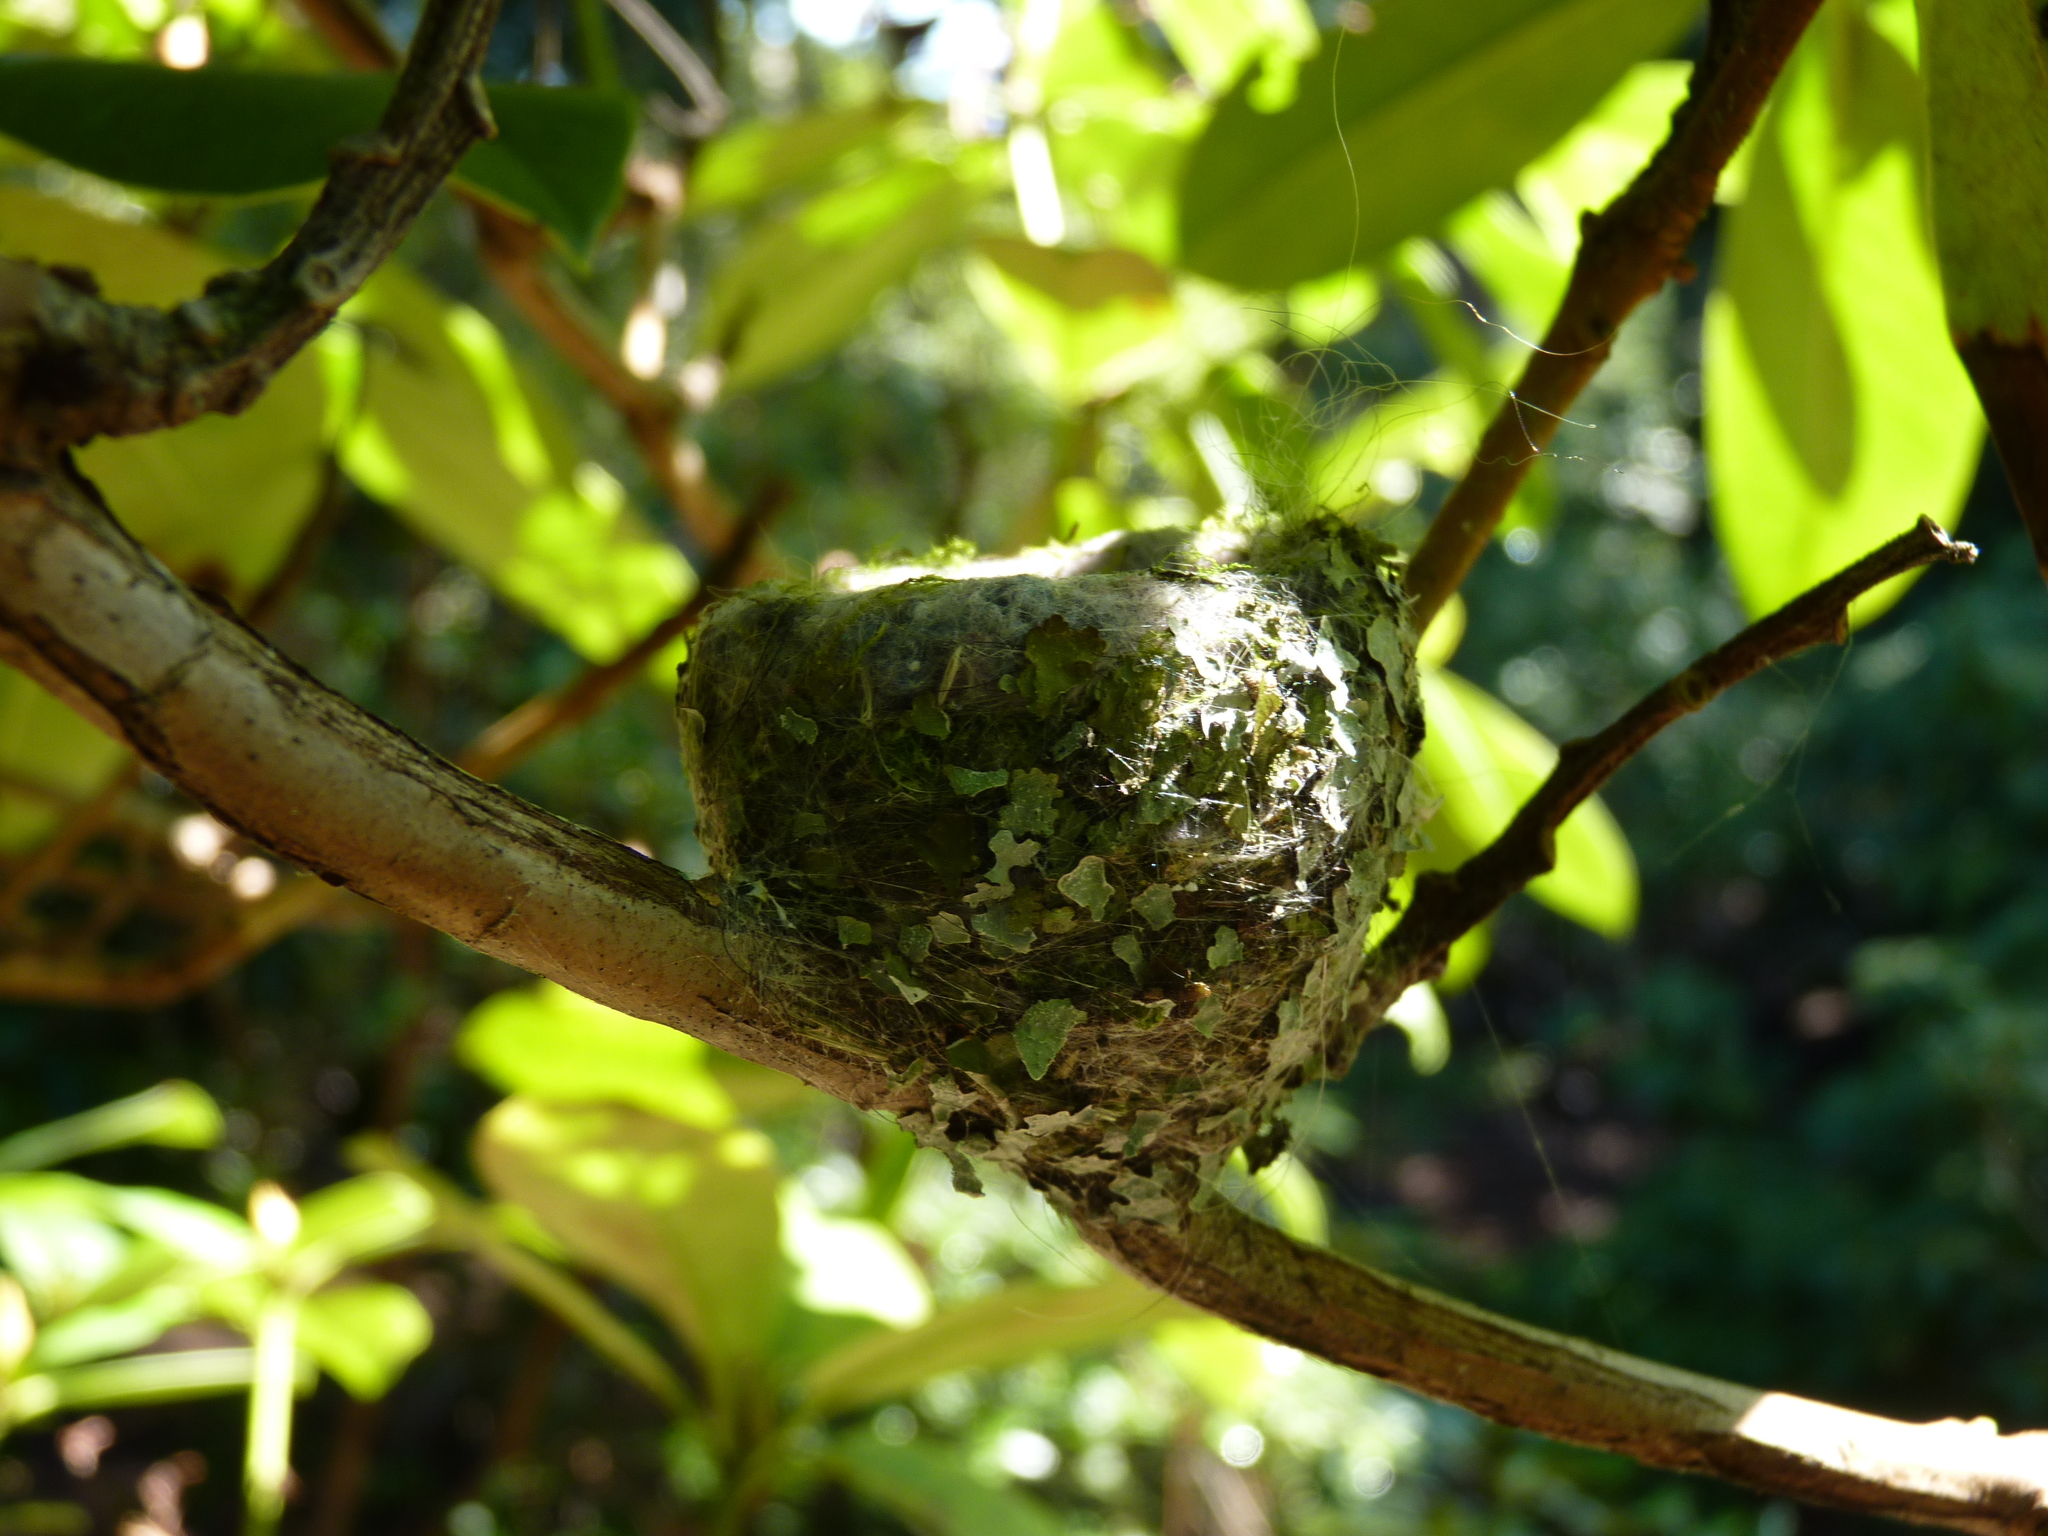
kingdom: Animalia
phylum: Chordata
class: Aves
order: Apodiformes
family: Trochilidae
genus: Calypte
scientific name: Calypte anna
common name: Anna's hummingbird
